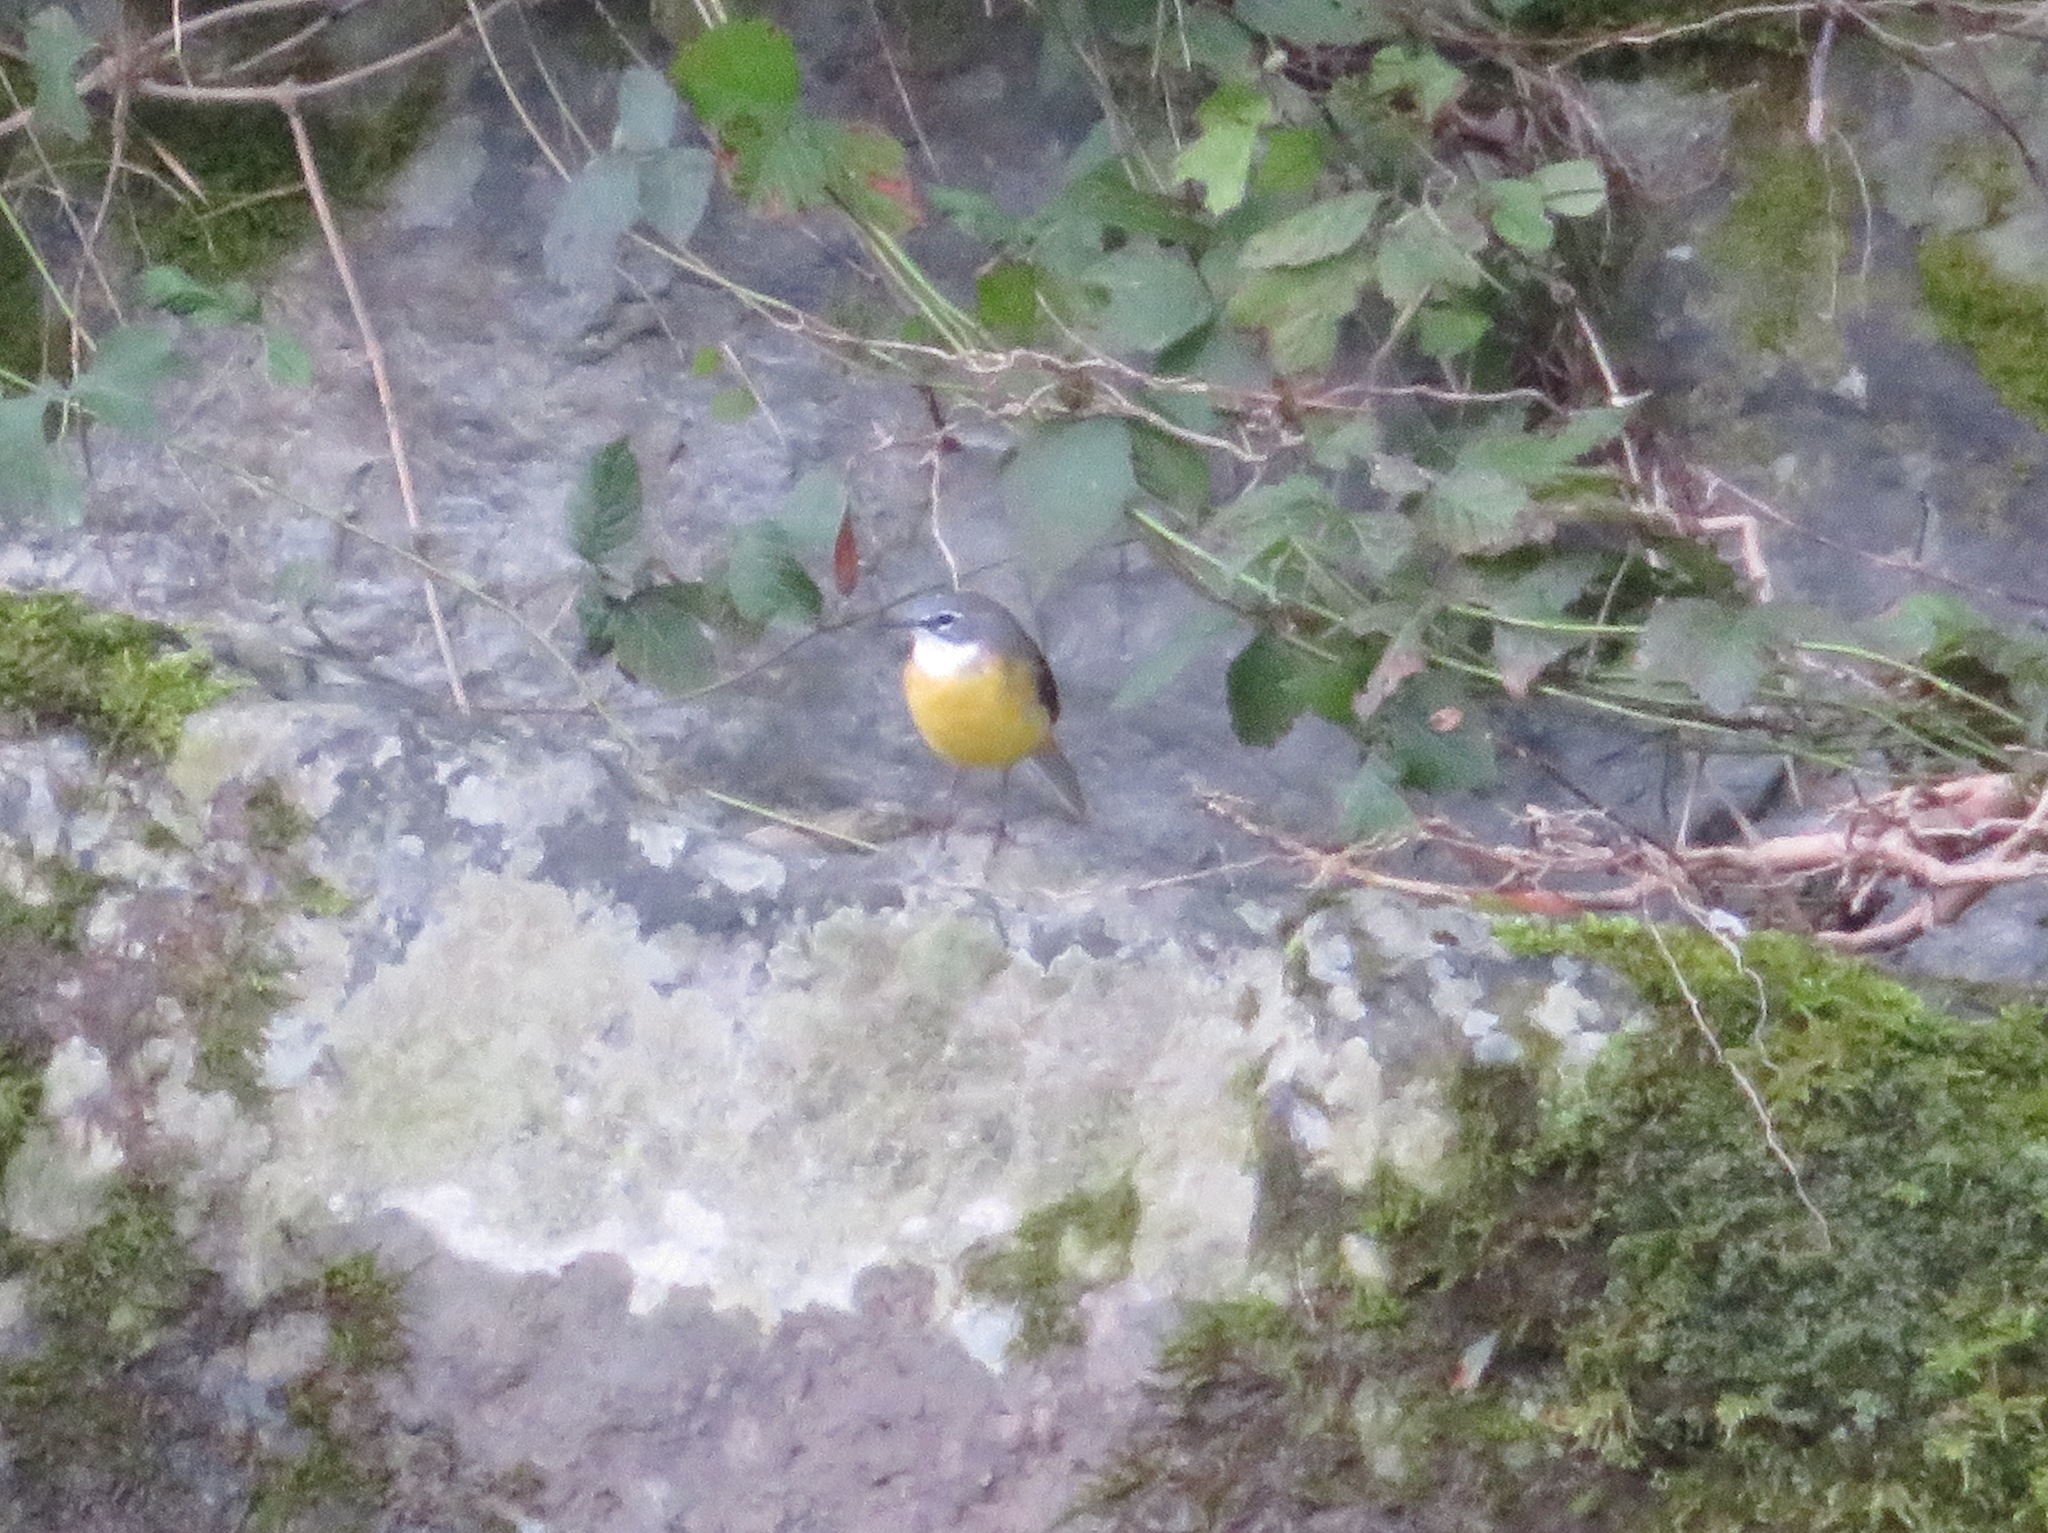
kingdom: Animalia
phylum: Chordata
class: Aves
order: Passeriformes
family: Motacillidae
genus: Motacilla
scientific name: Motacilla cinerea
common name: Grey wagtail
